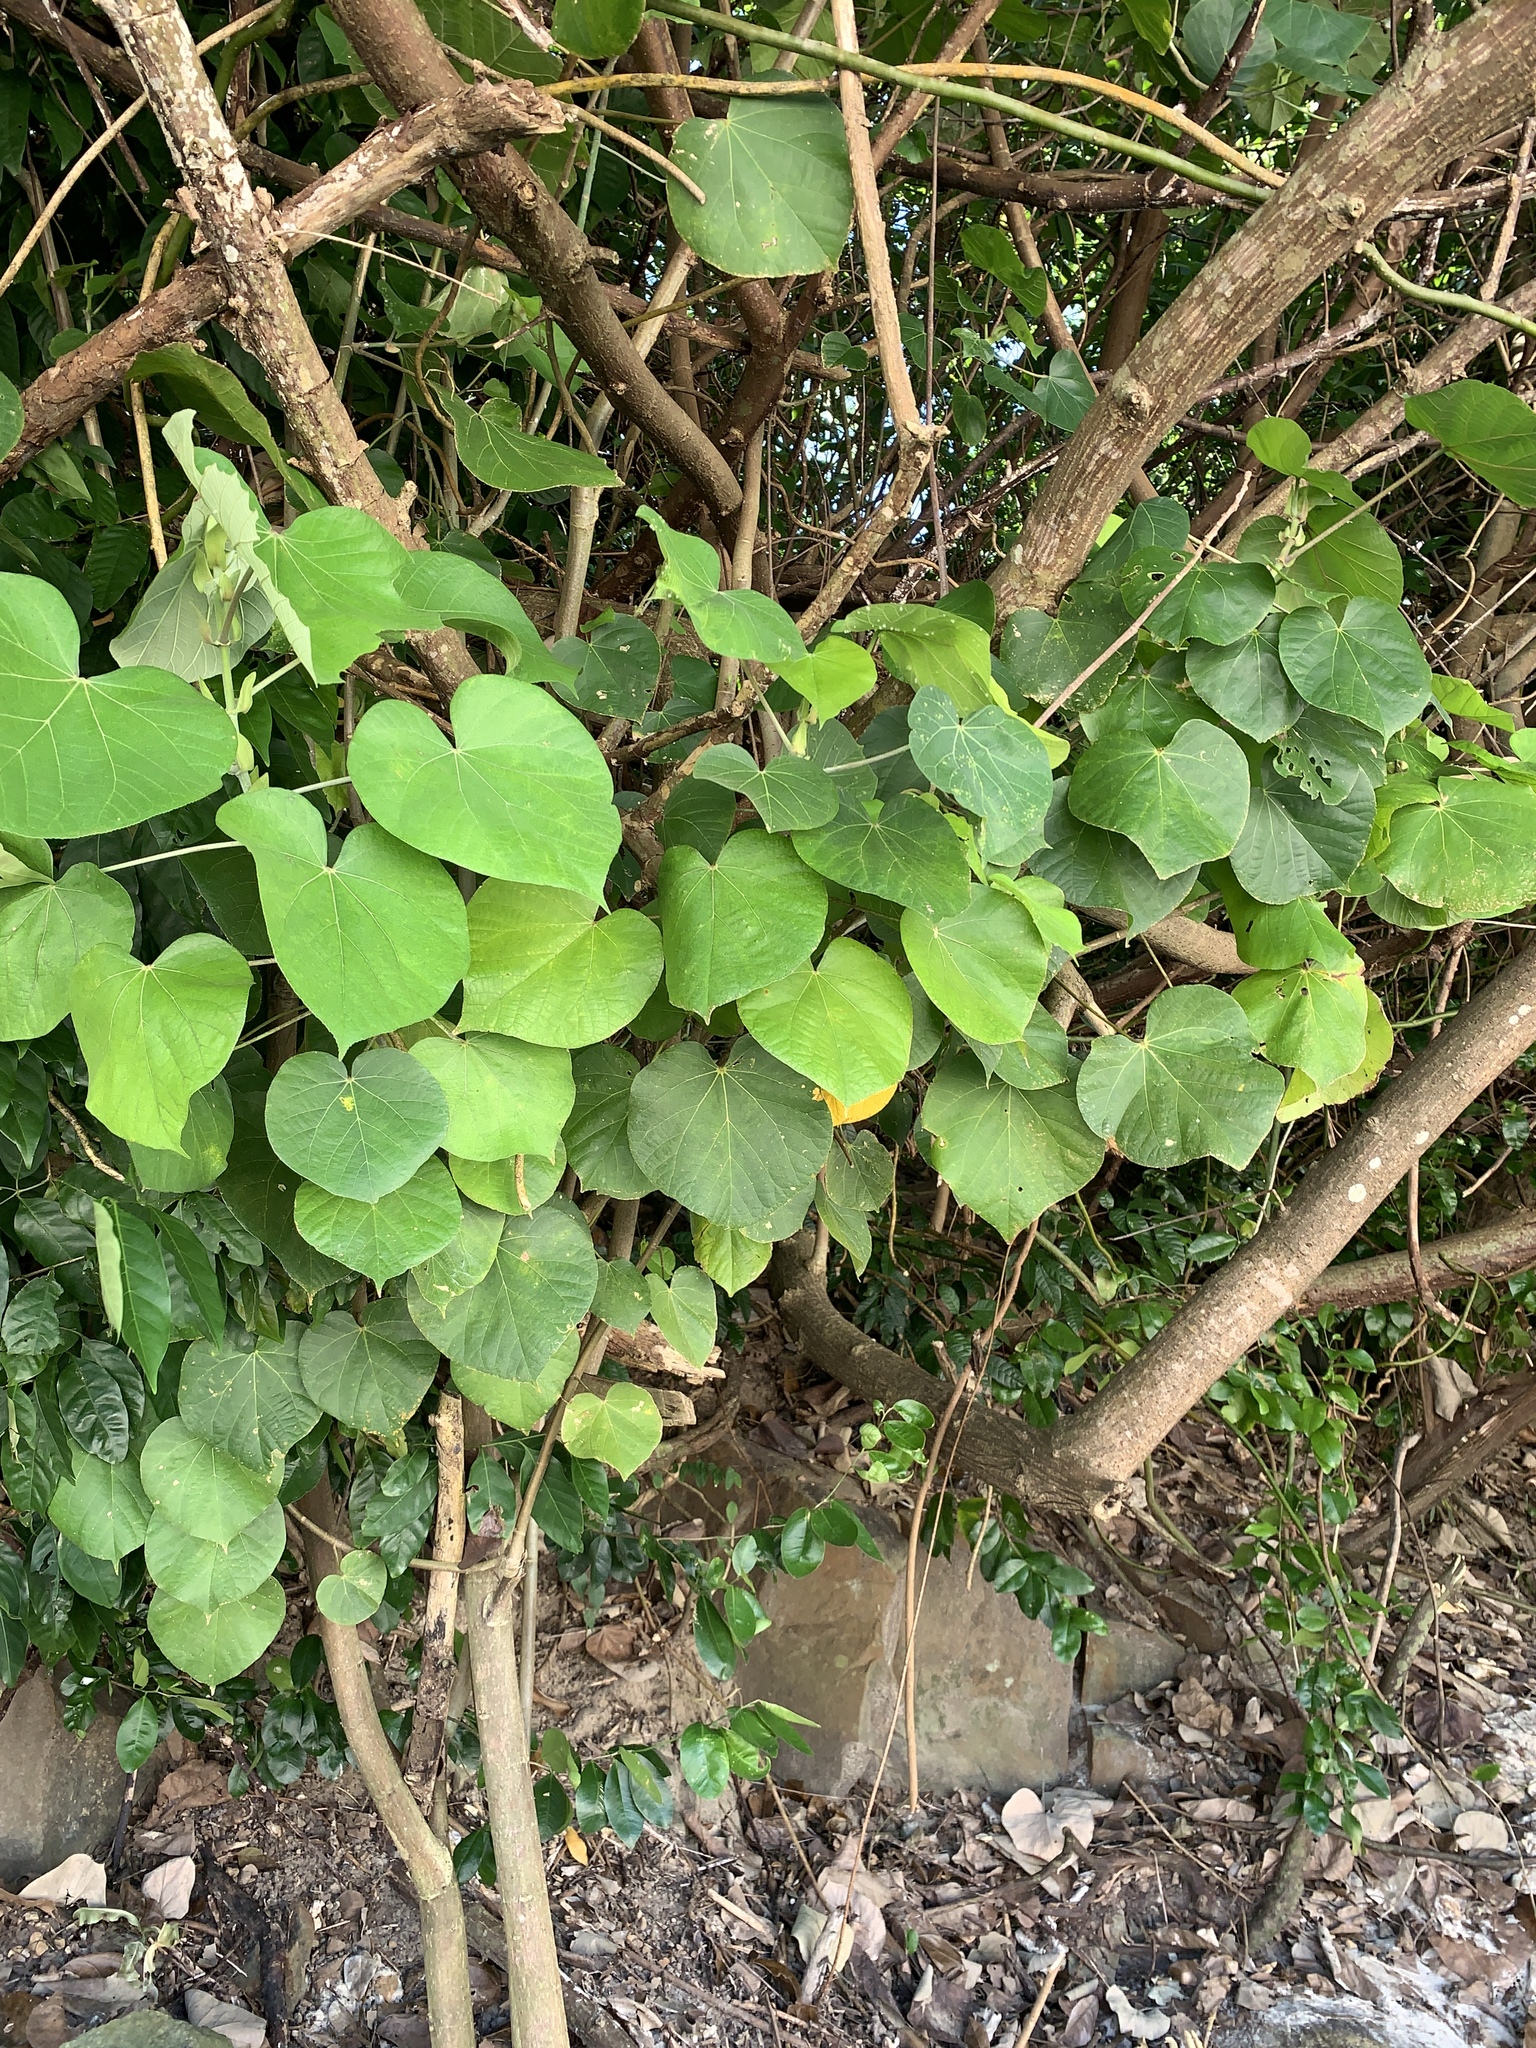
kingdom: Plantae
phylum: Tracheophyta
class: Magnoliopsida
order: Malvales
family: Malvaceae
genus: Talipariti
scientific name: Talipariti tiliaceum
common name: Sea hibiscus
